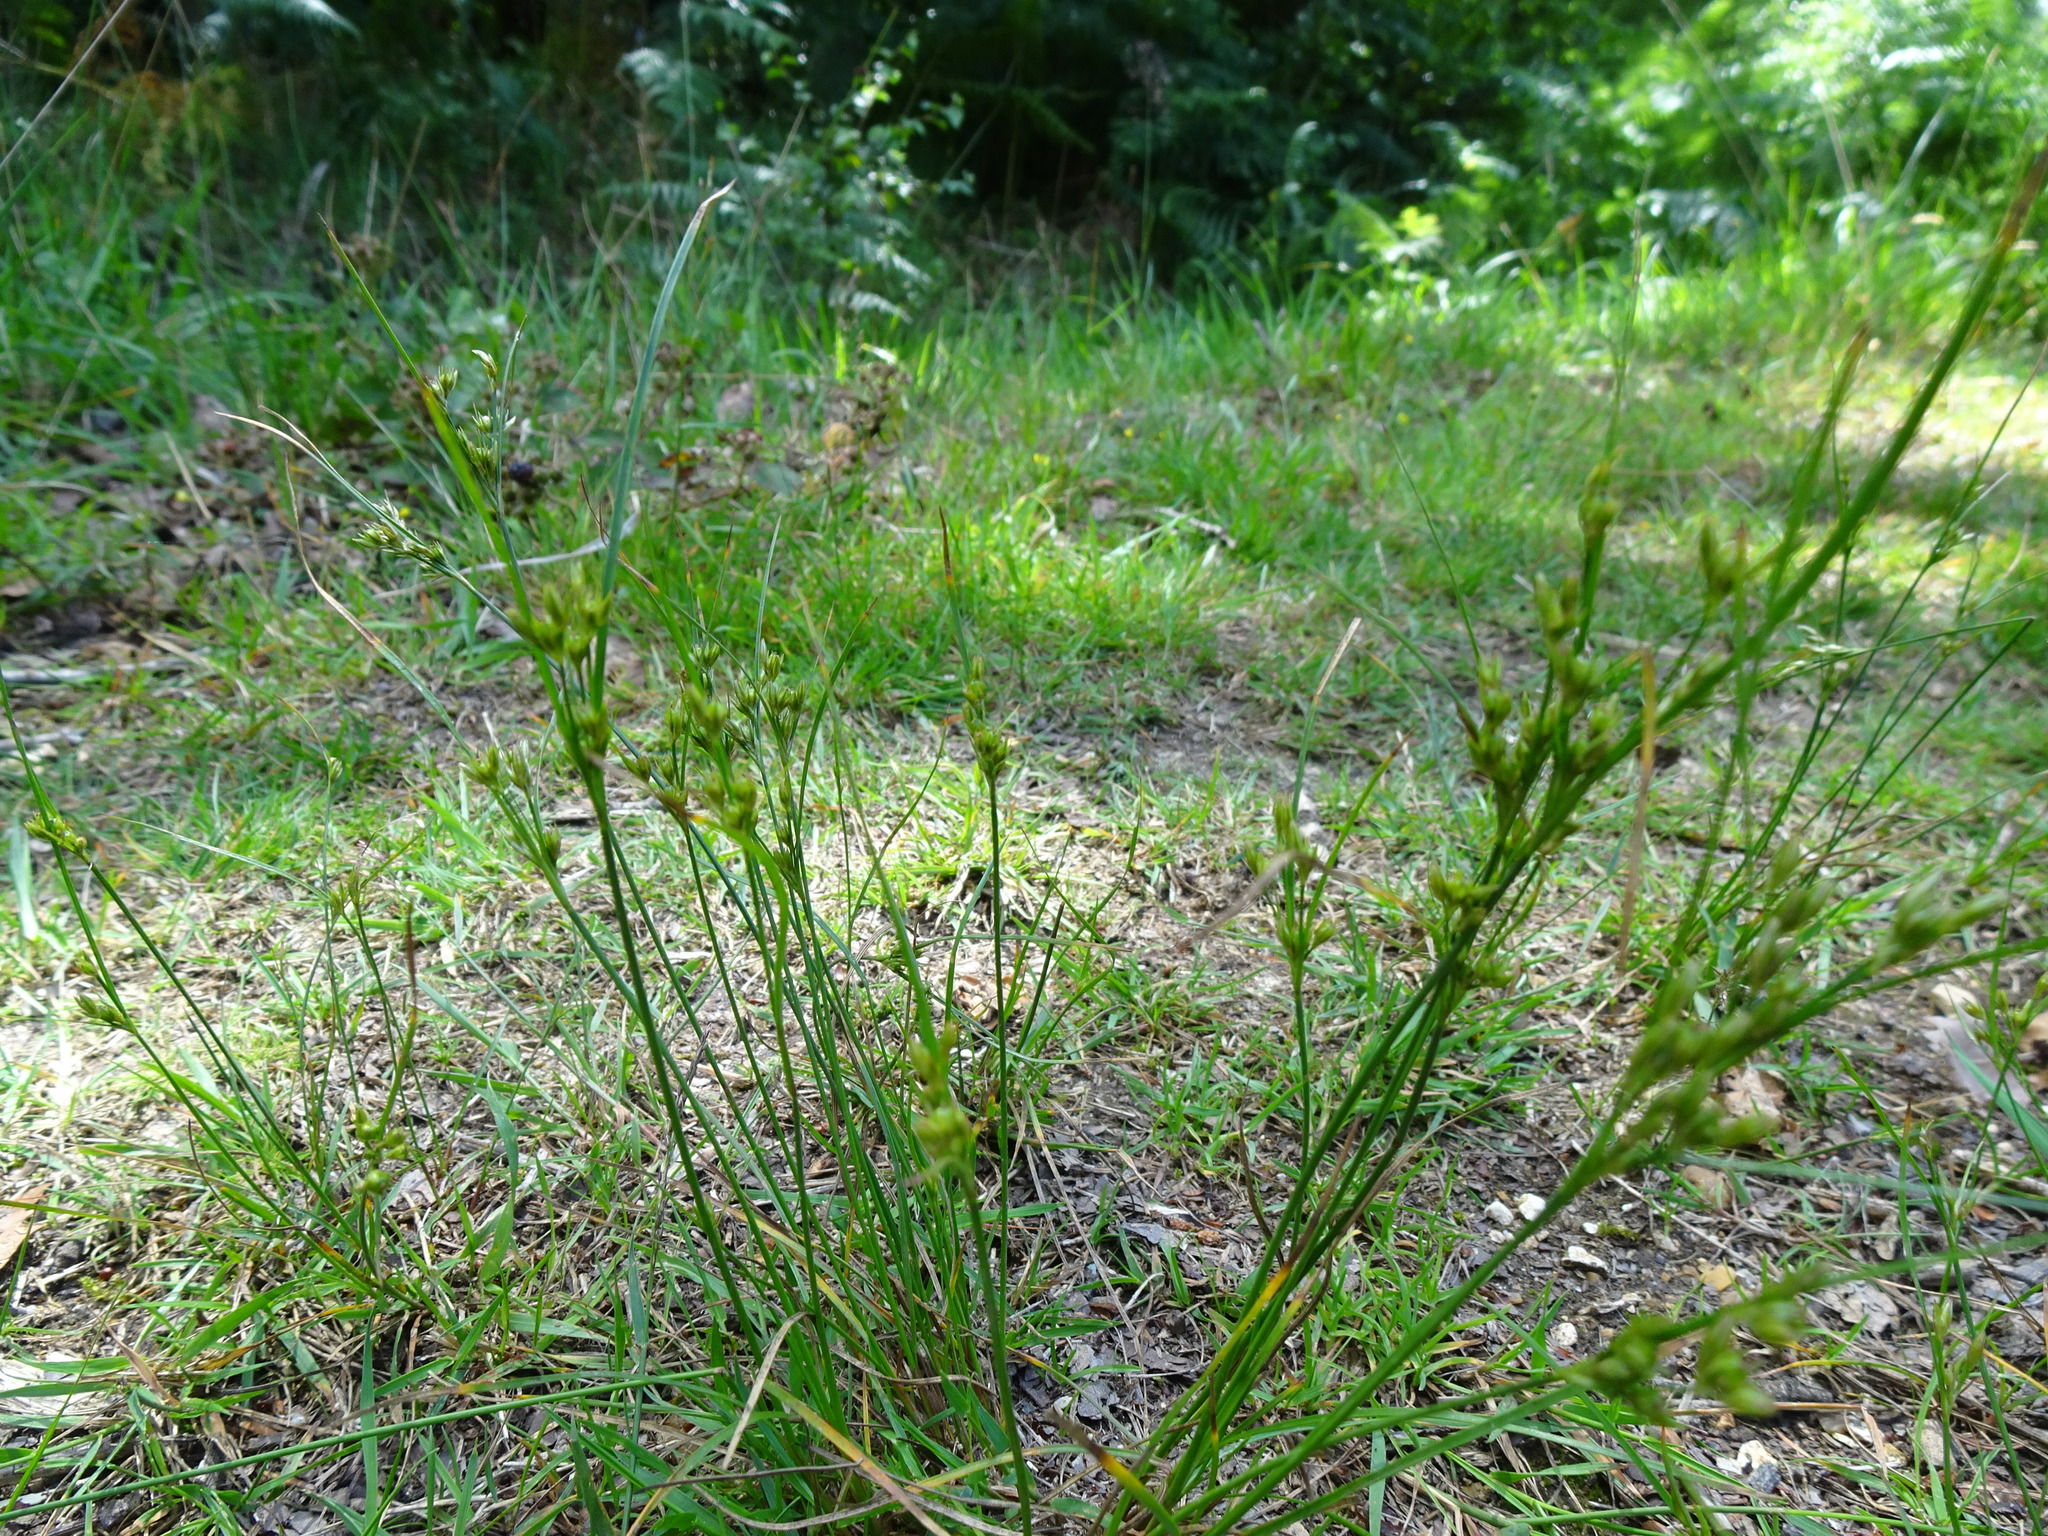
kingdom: Plantae
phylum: Tracheophyta
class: Liliopsida
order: Poales
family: Juncaceae
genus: Juncus
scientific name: Juncus tenuis
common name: Slender rush
